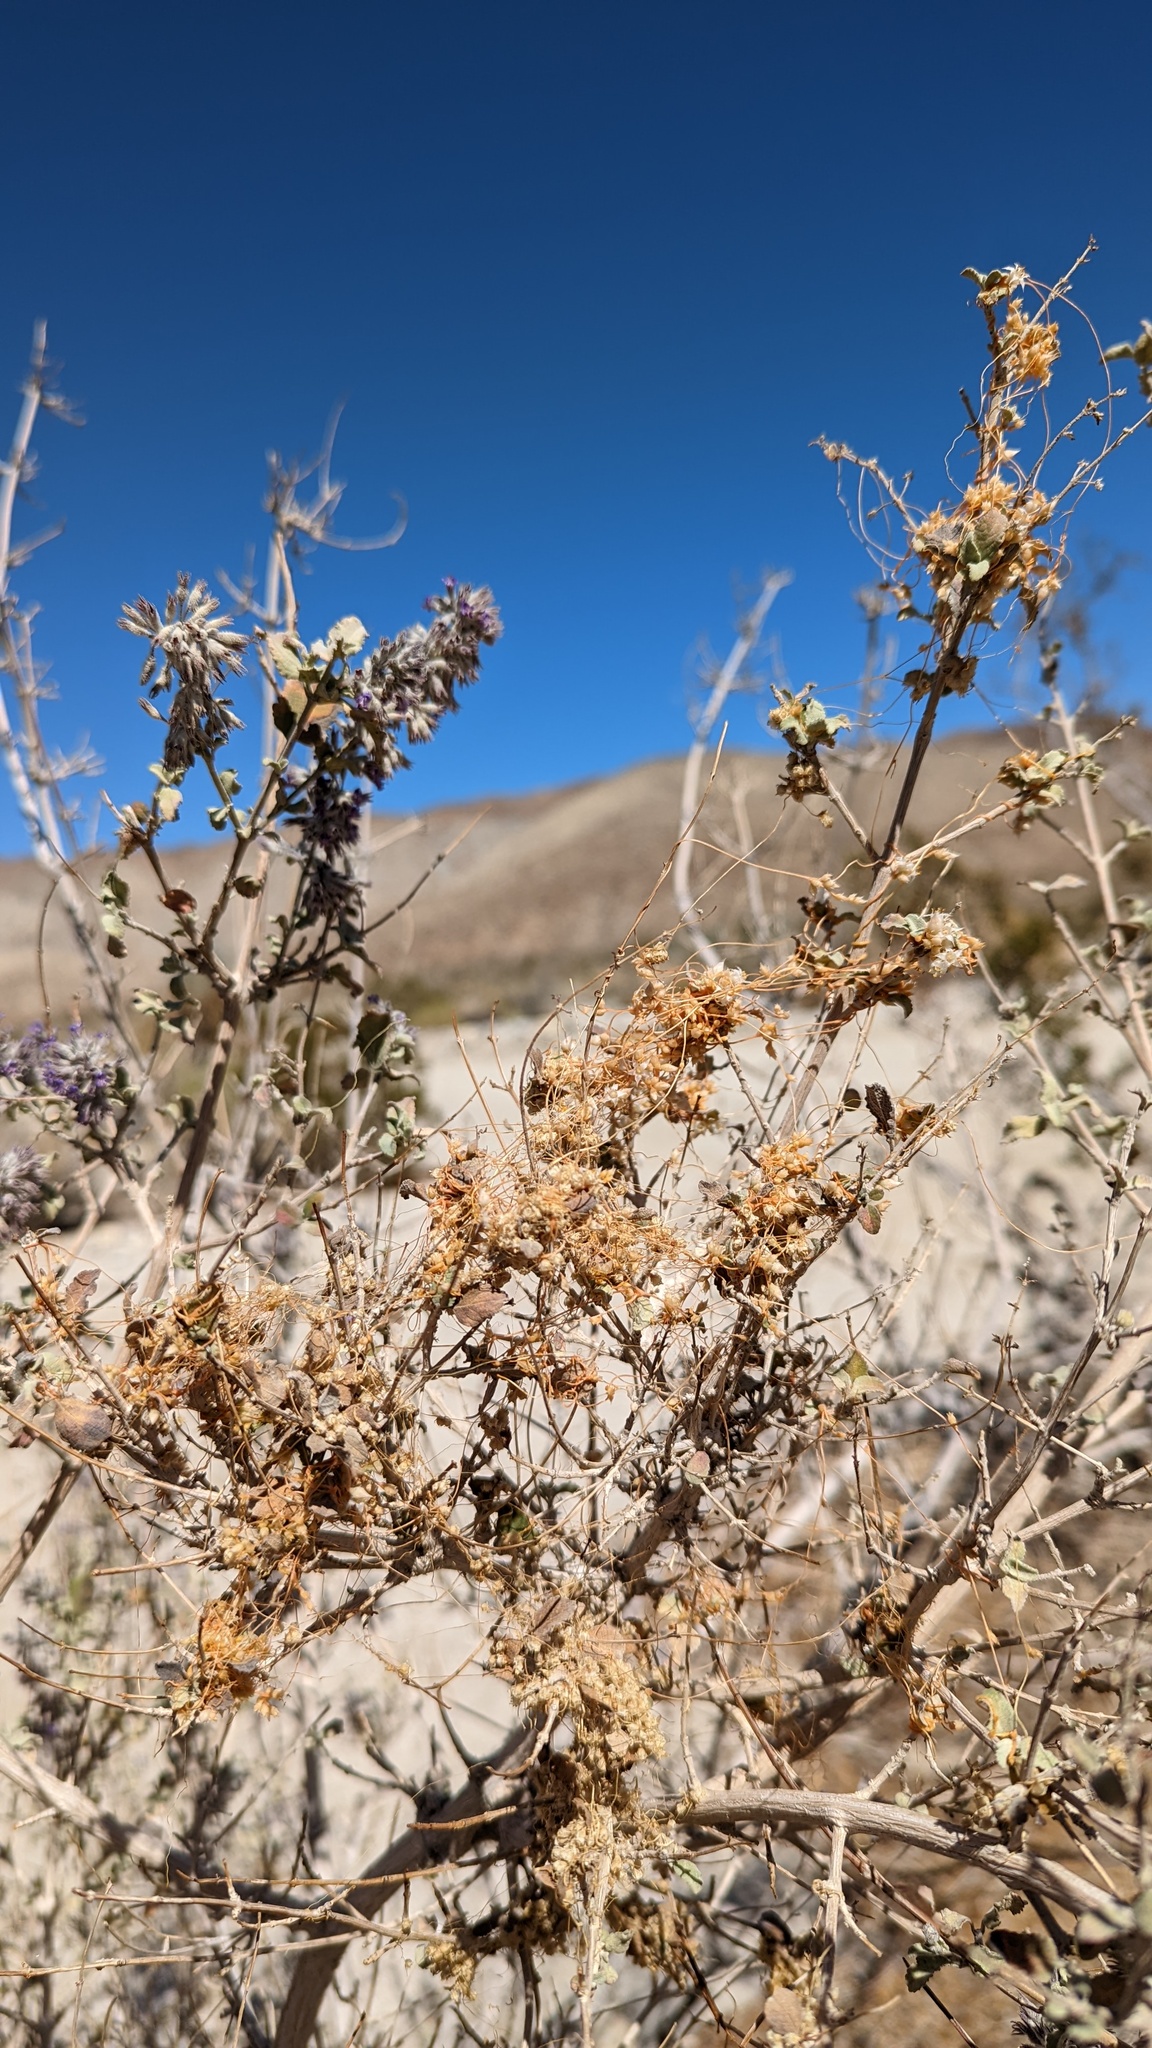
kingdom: Plantae
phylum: Tracheophyta
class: Magnoliopsida
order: Solanales
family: Convolvulaceae
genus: Cuscuta
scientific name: Cuscuta californica
